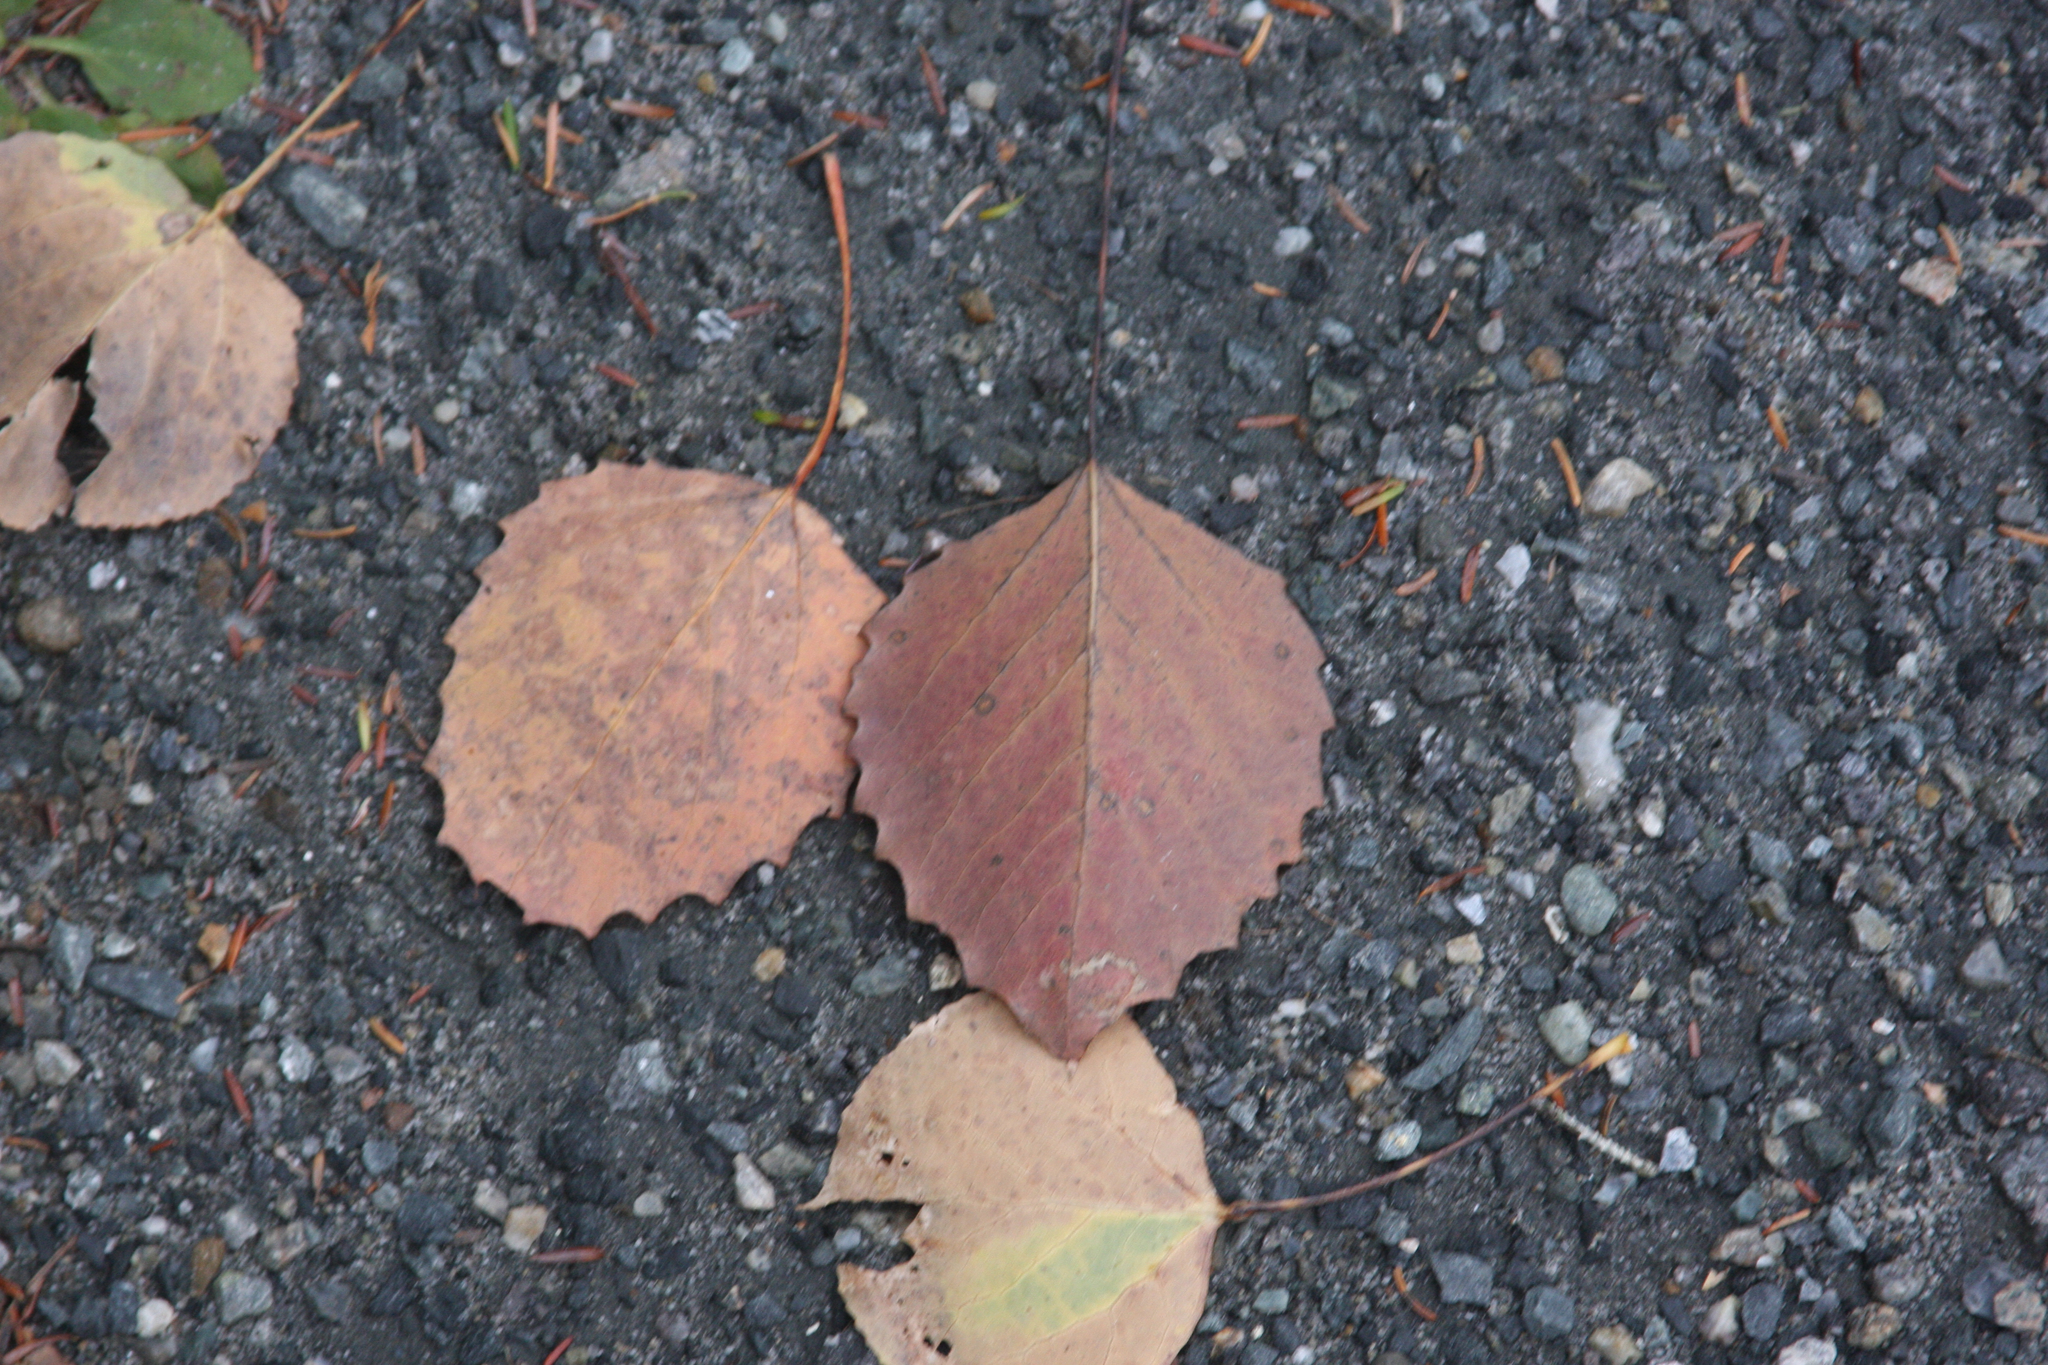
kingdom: Plantae
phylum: Tracheophyta
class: Magnoliopsida
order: Malpighiales
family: Salicaceae
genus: Populus
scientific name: Populus grandidentata
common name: Bigtooth aspen
